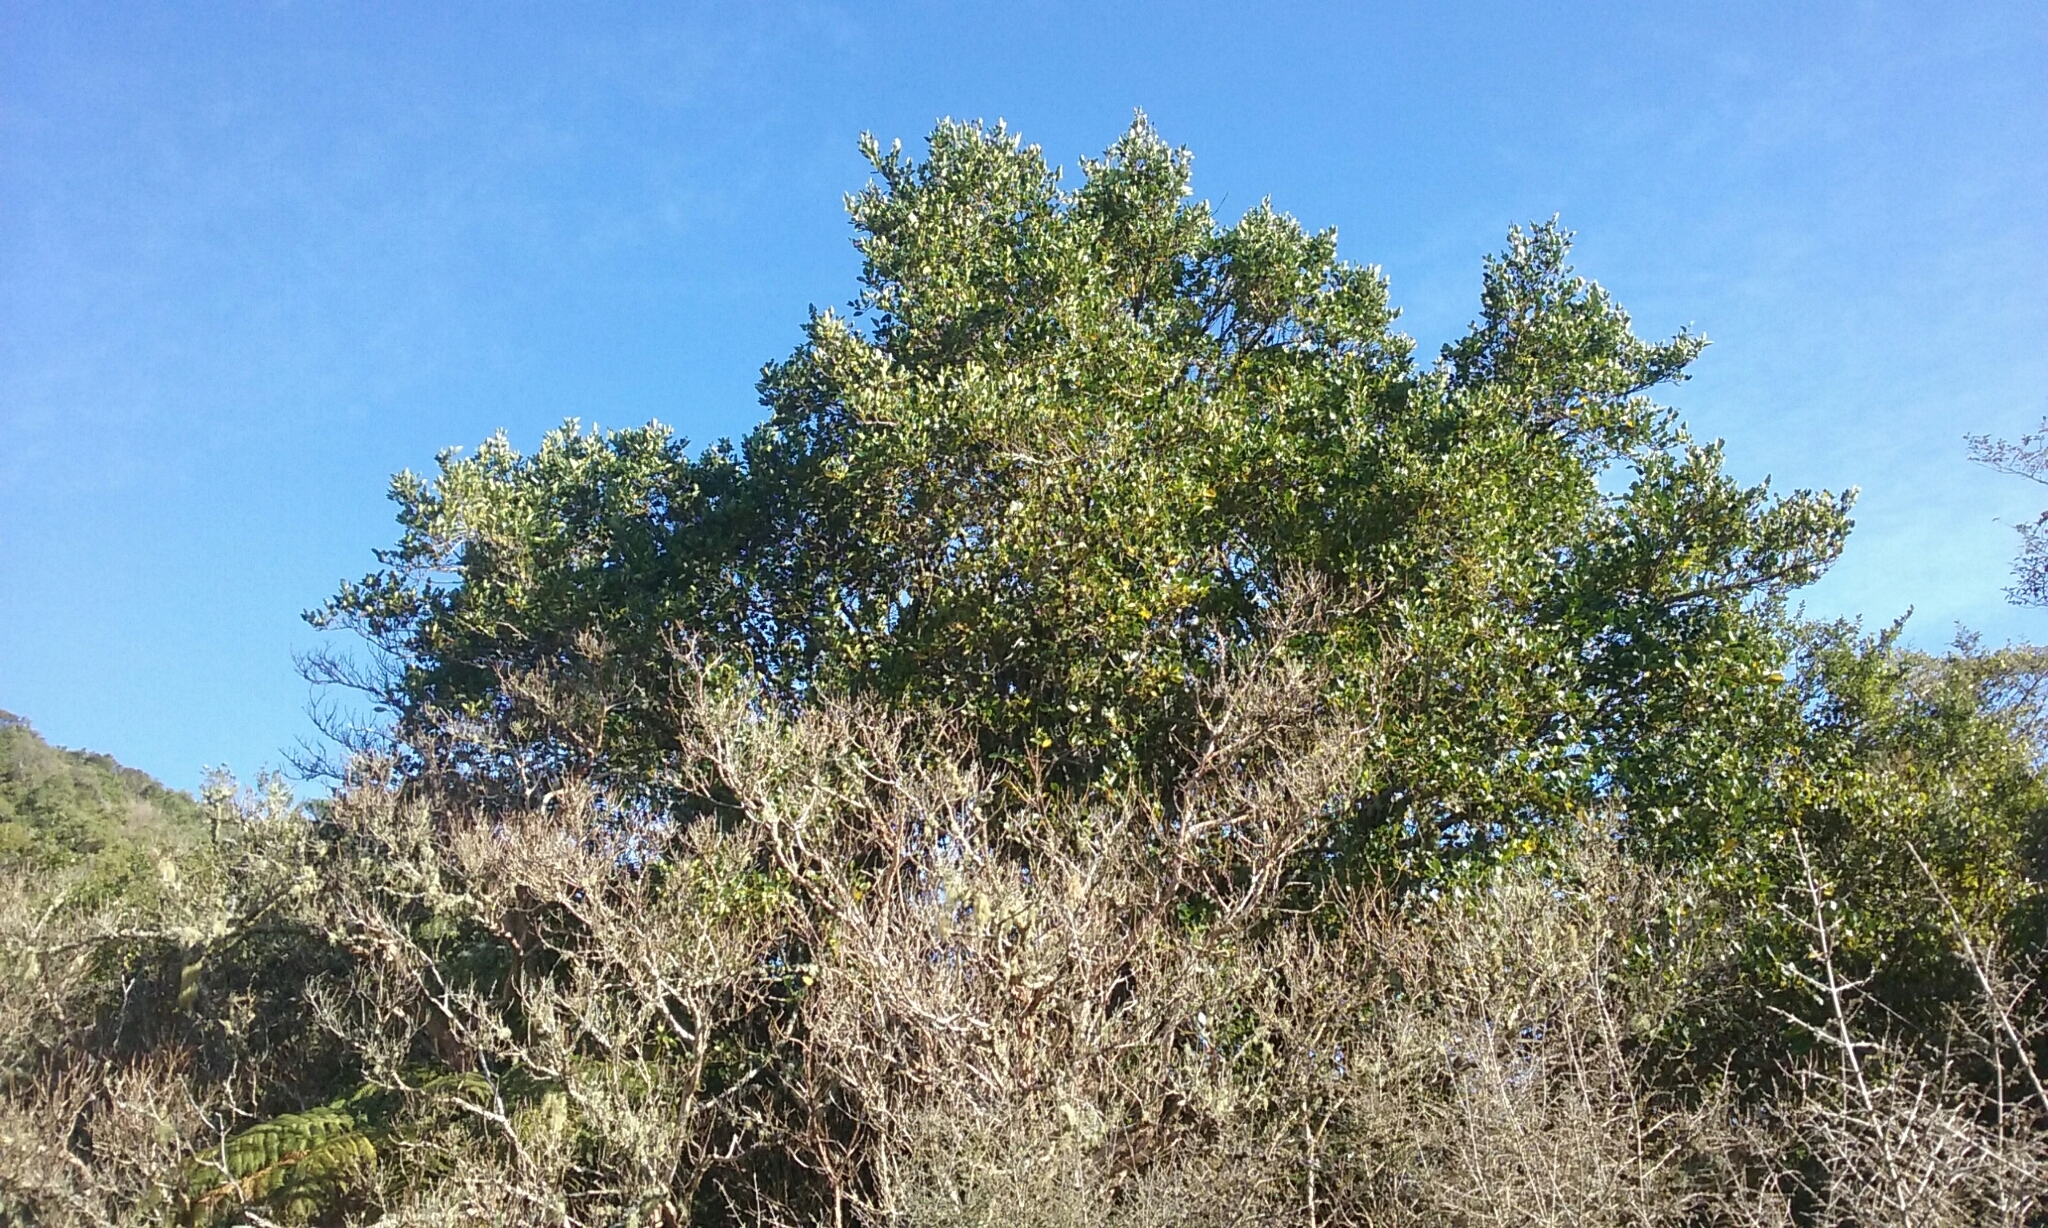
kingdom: Plantae
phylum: Tracheophyta
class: Magnoliopsida
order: Apiales
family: Griseliniaceae
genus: Griselinia
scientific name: Griselinia littoralis
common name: New zealand broadleaf
